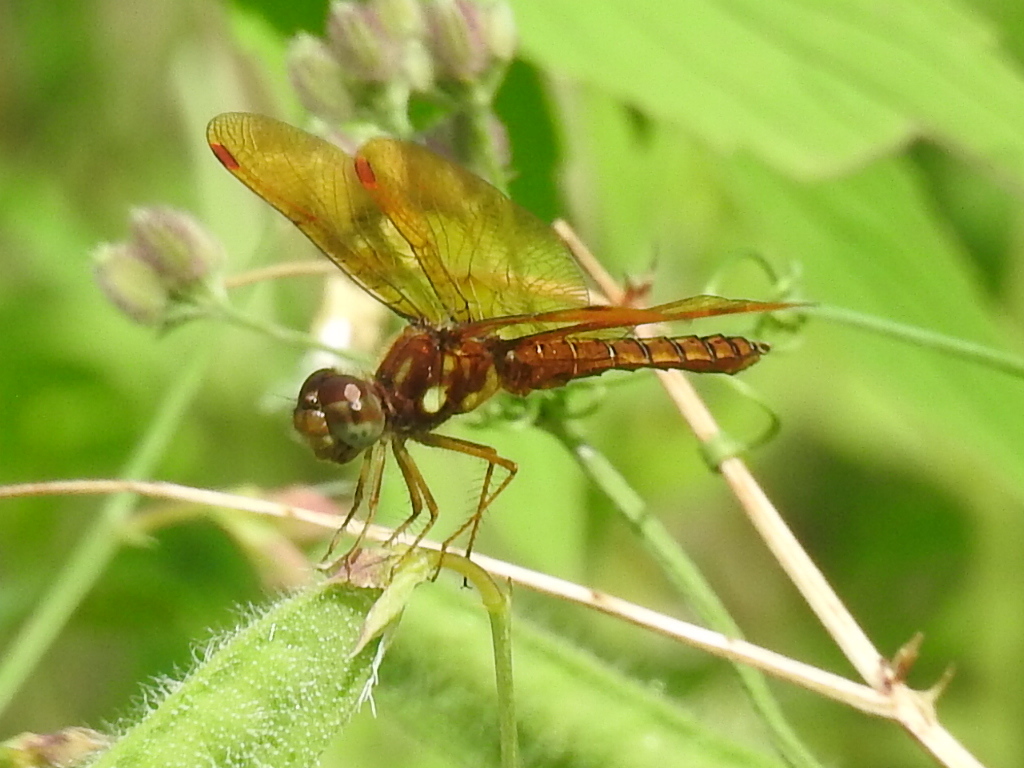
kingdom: Animalia
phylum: Arthropoda
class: Insecta
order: Odonata
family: Libellulidae
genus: Perithemis
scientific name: Perithemis tenera
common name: Eastern amberwing
